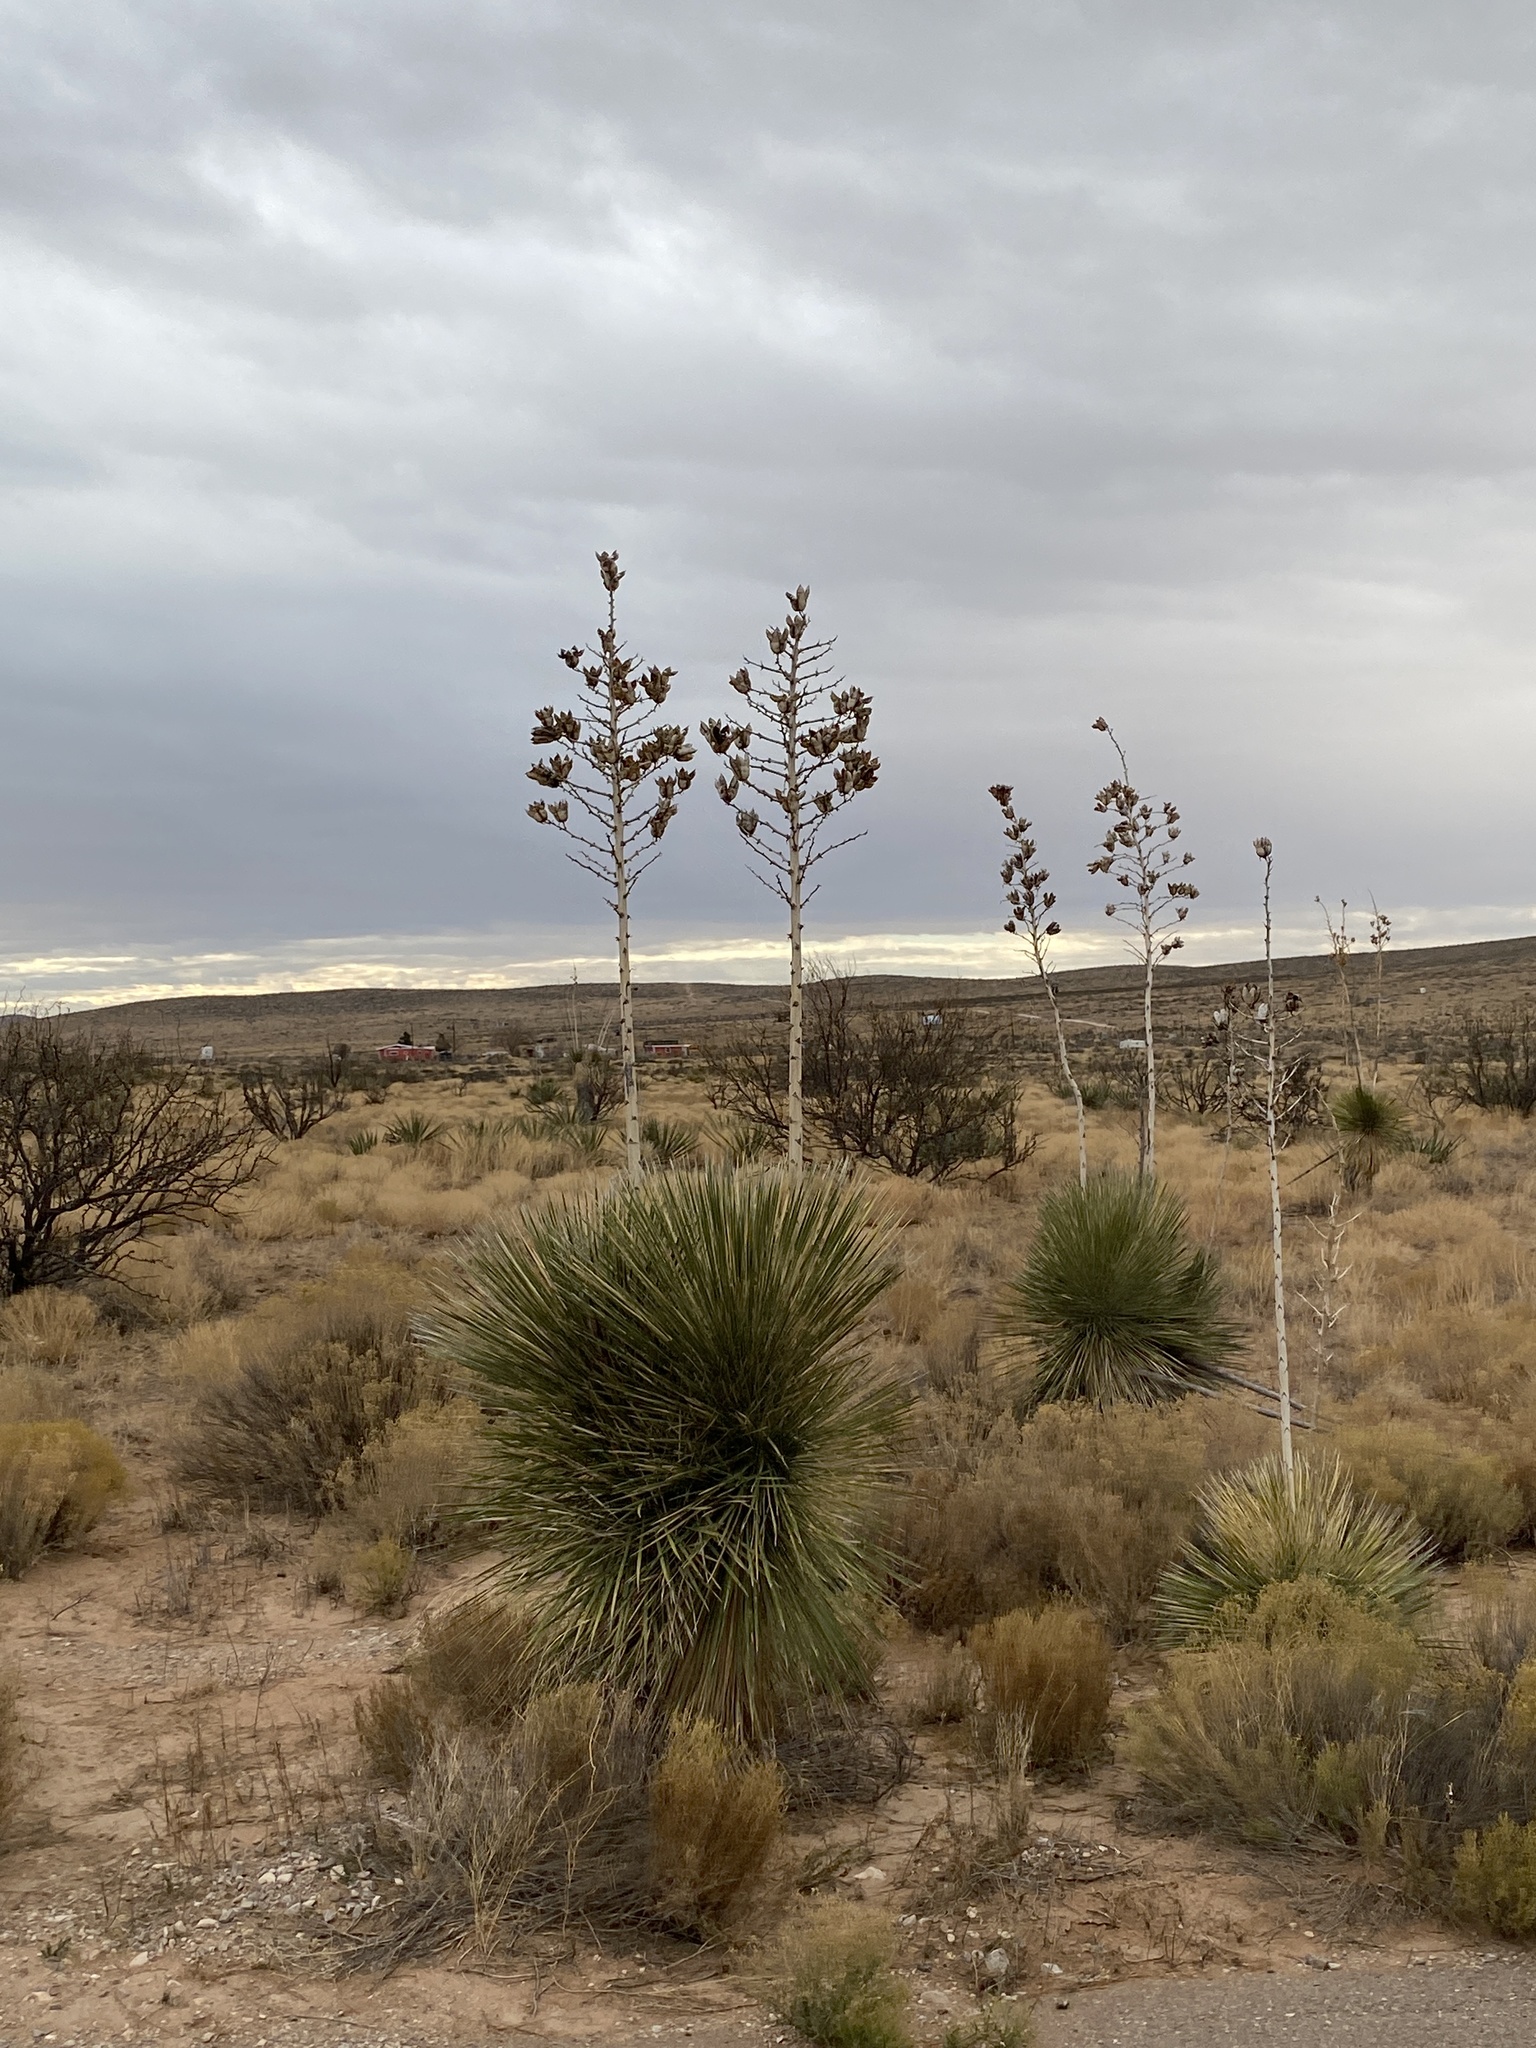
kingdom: Plantae
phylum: Tracheophyta
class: Liliopsida
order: Asparagales
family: Asparagaceae
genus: Yucca
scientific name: Yucca elata
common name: Palmella
